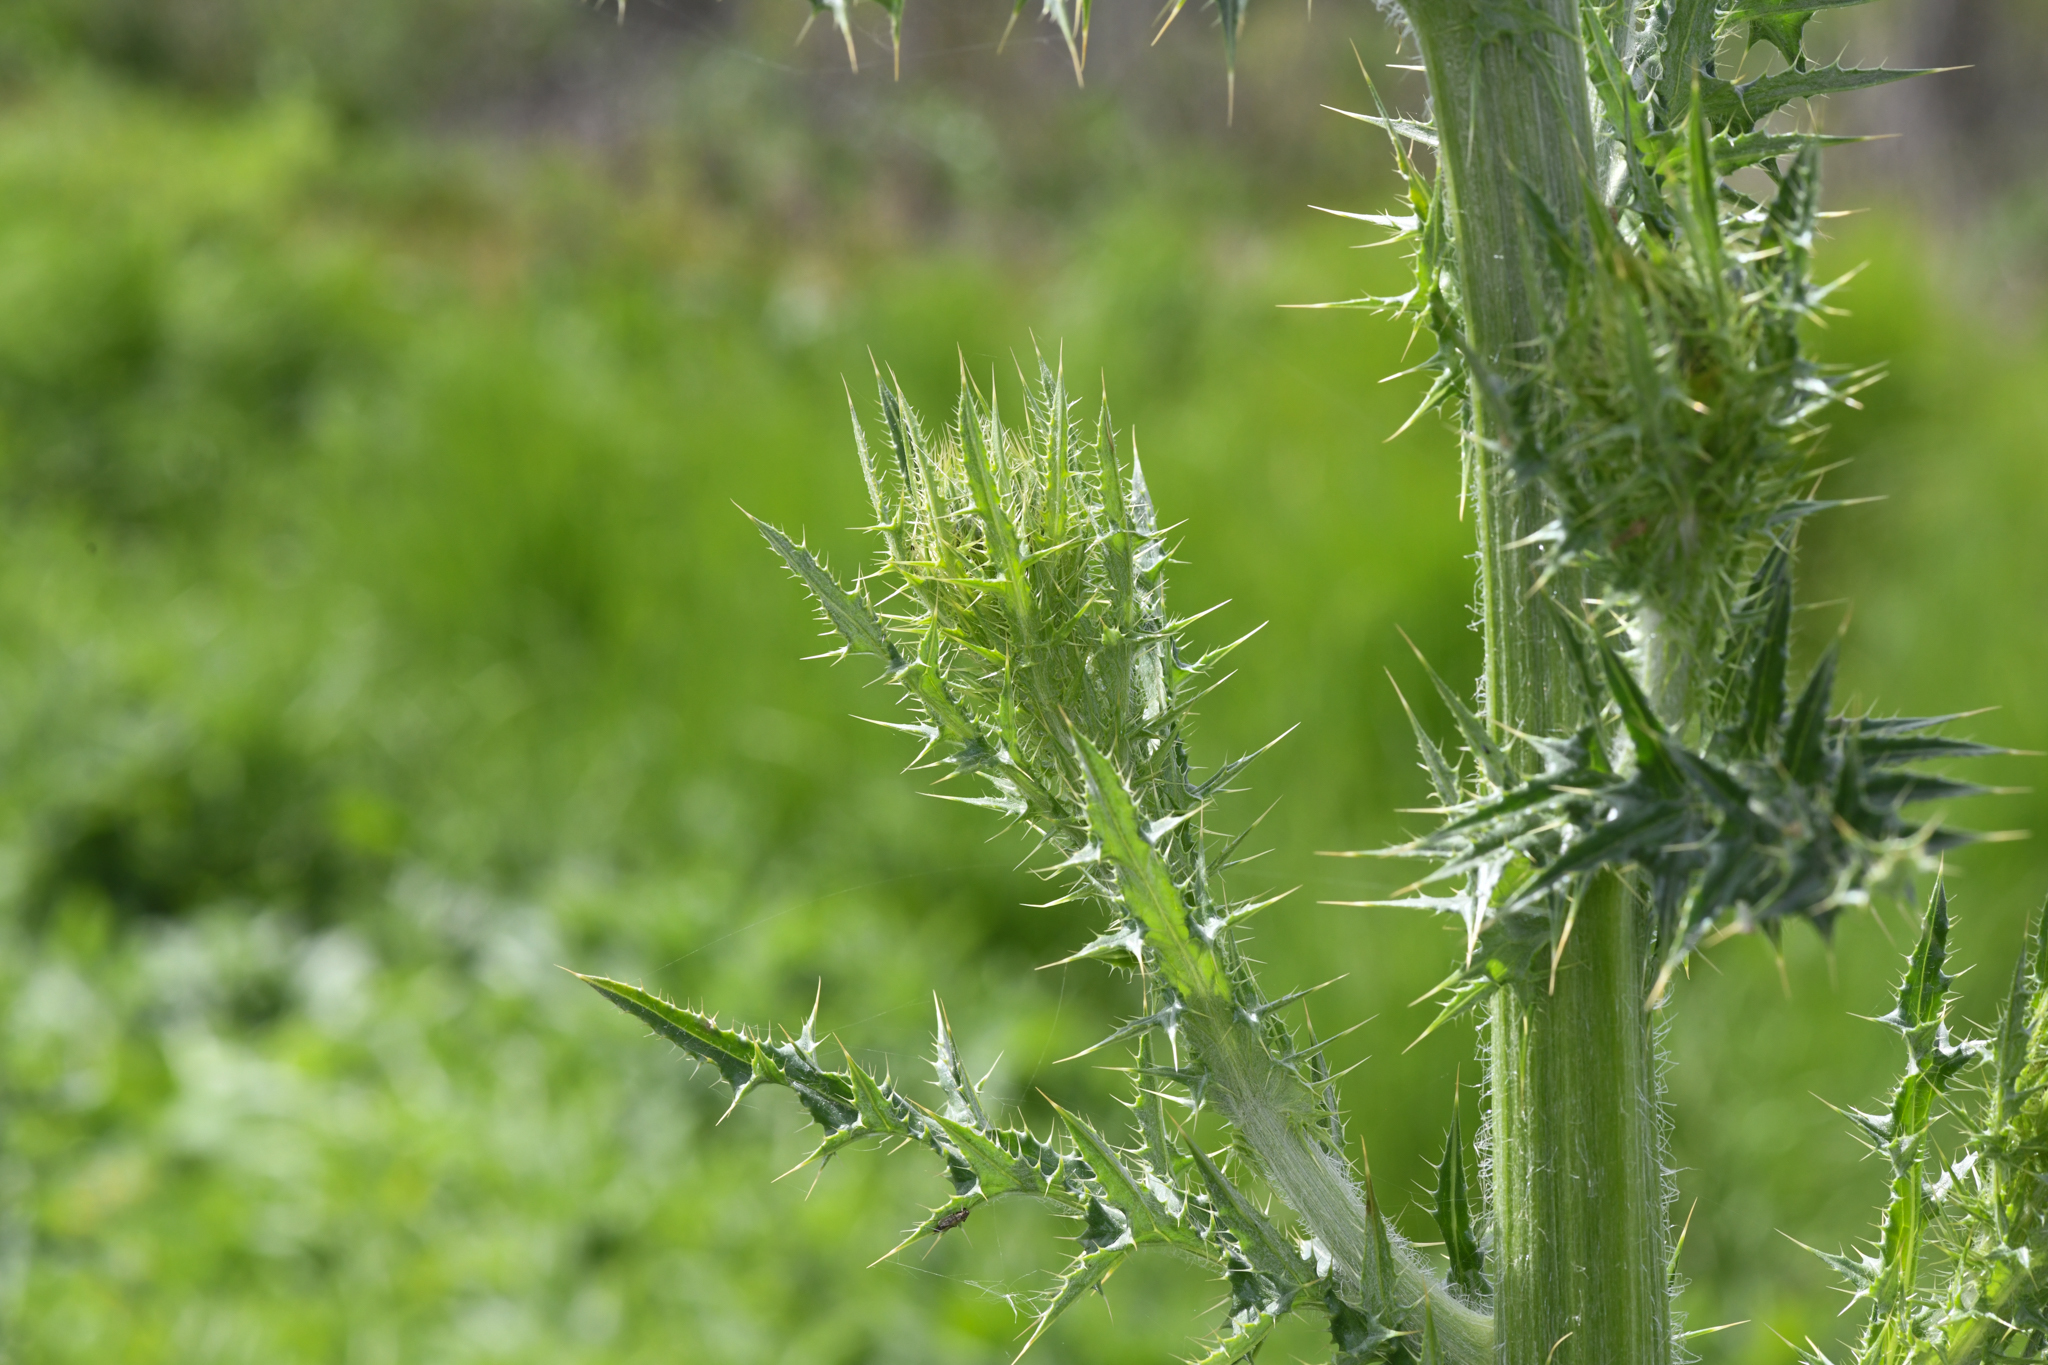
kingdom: Plantae
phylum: Tracheophyta
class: Magnoliopsida
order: Asterales
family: Asteraceae
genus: Cirsium
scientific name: Cirsium crassicaule
